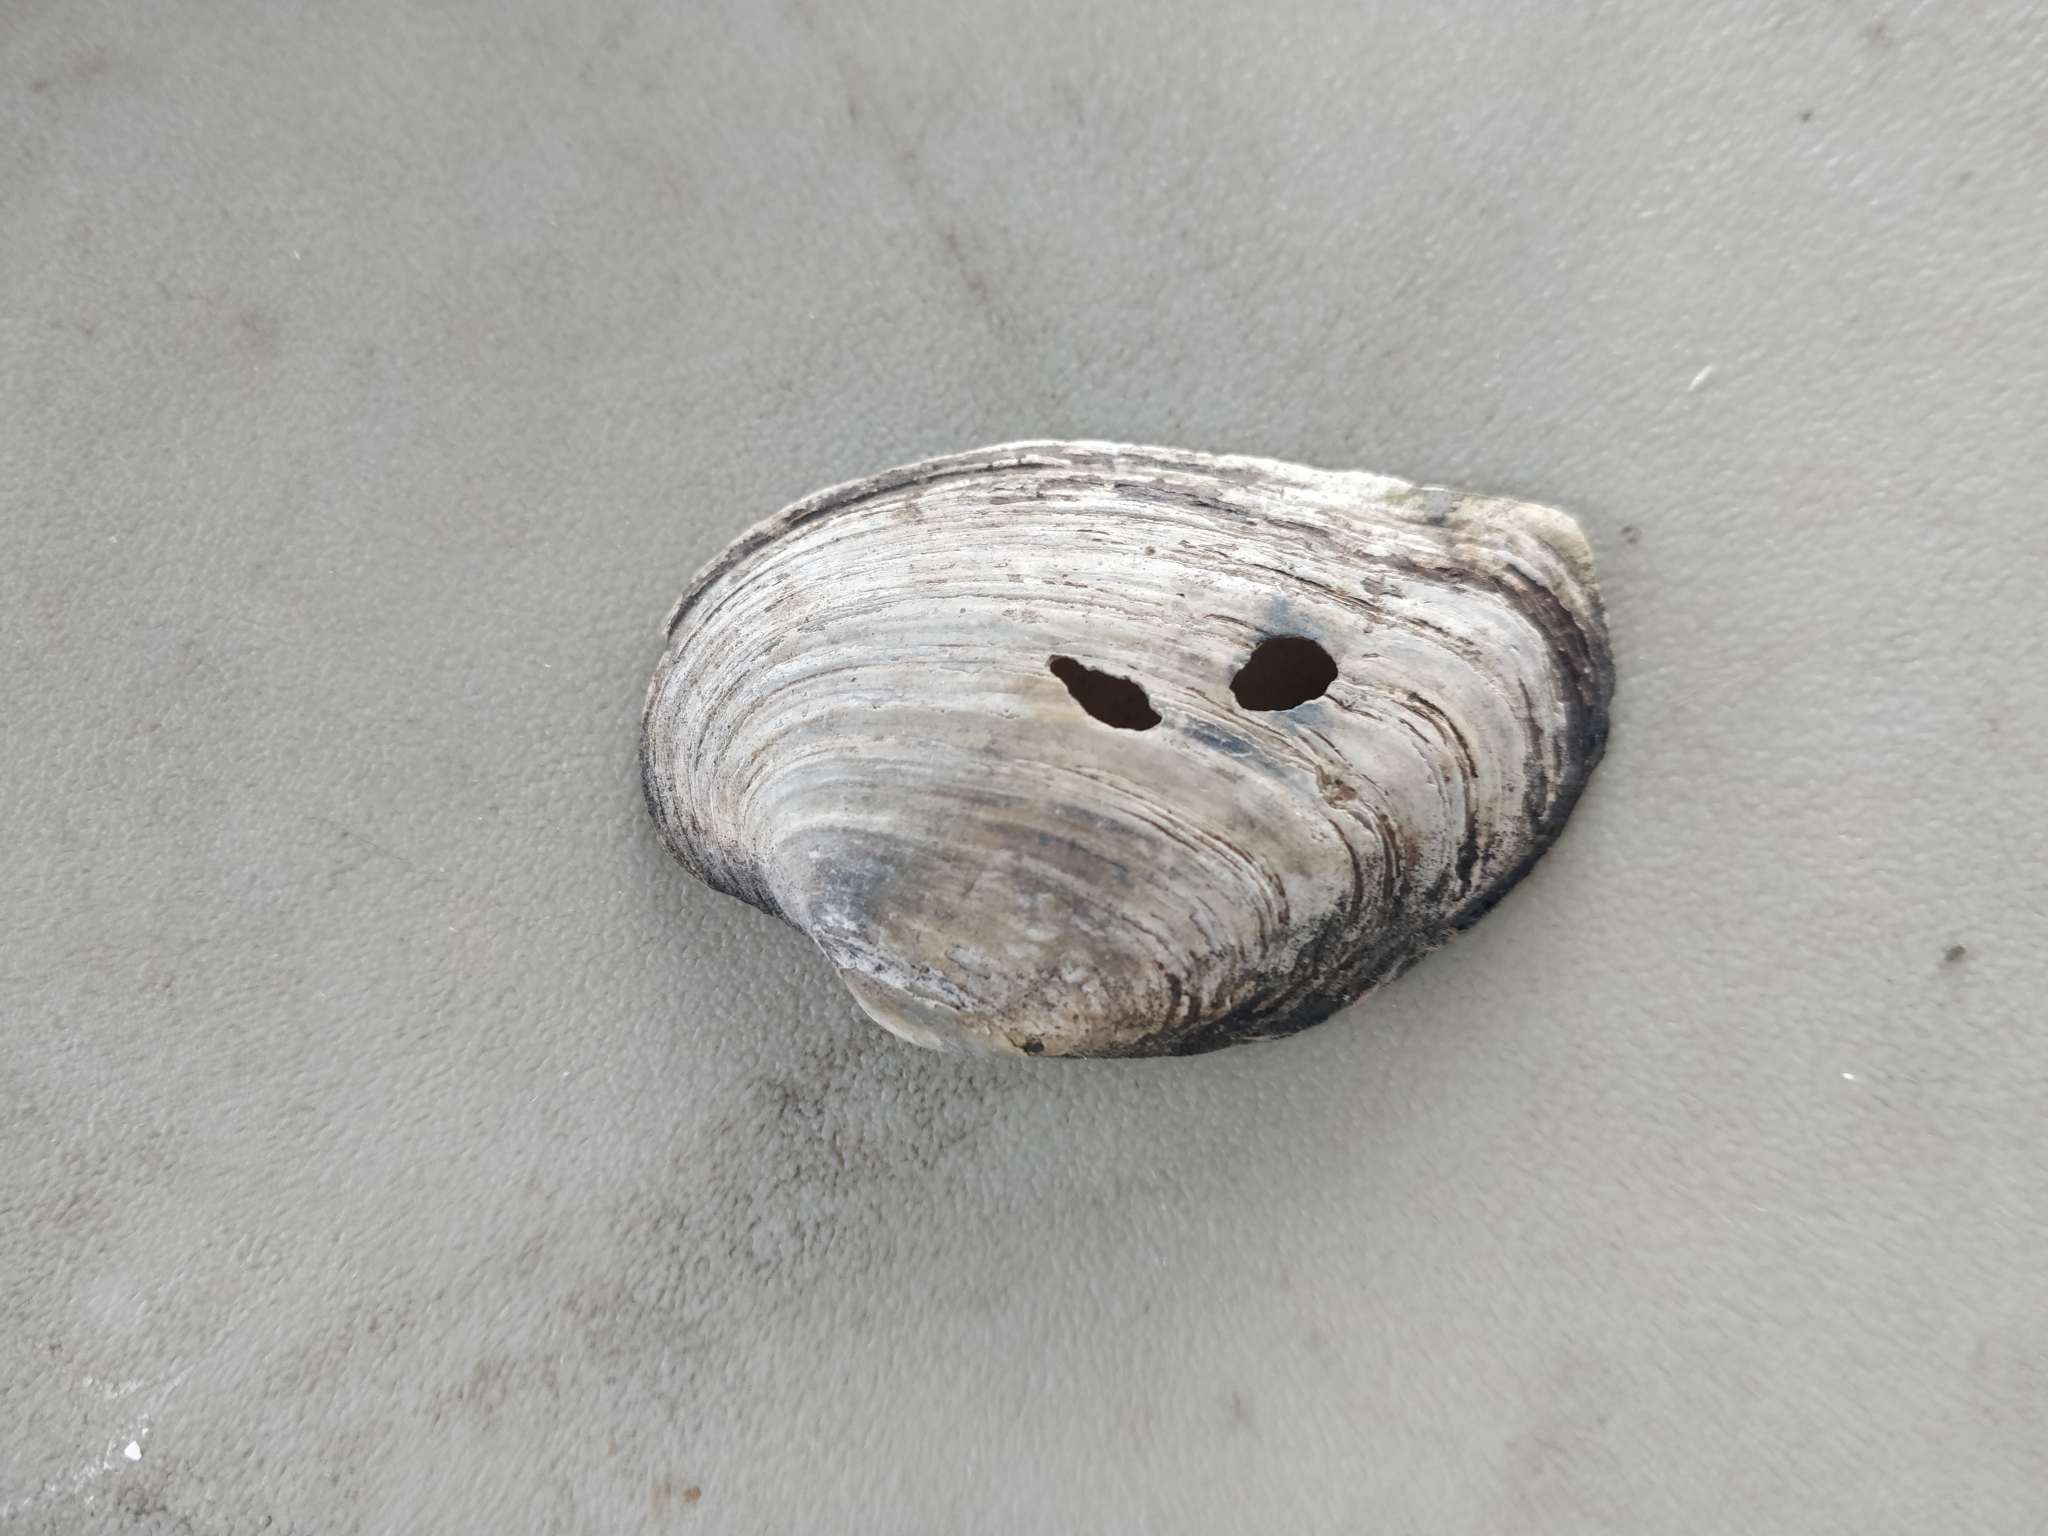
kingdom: Animalia
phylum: Mollusca
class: Bivalvia
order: Unionida
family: Unionidae
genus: Strophitus
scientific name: Strophitus undulatus
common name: Creeper
